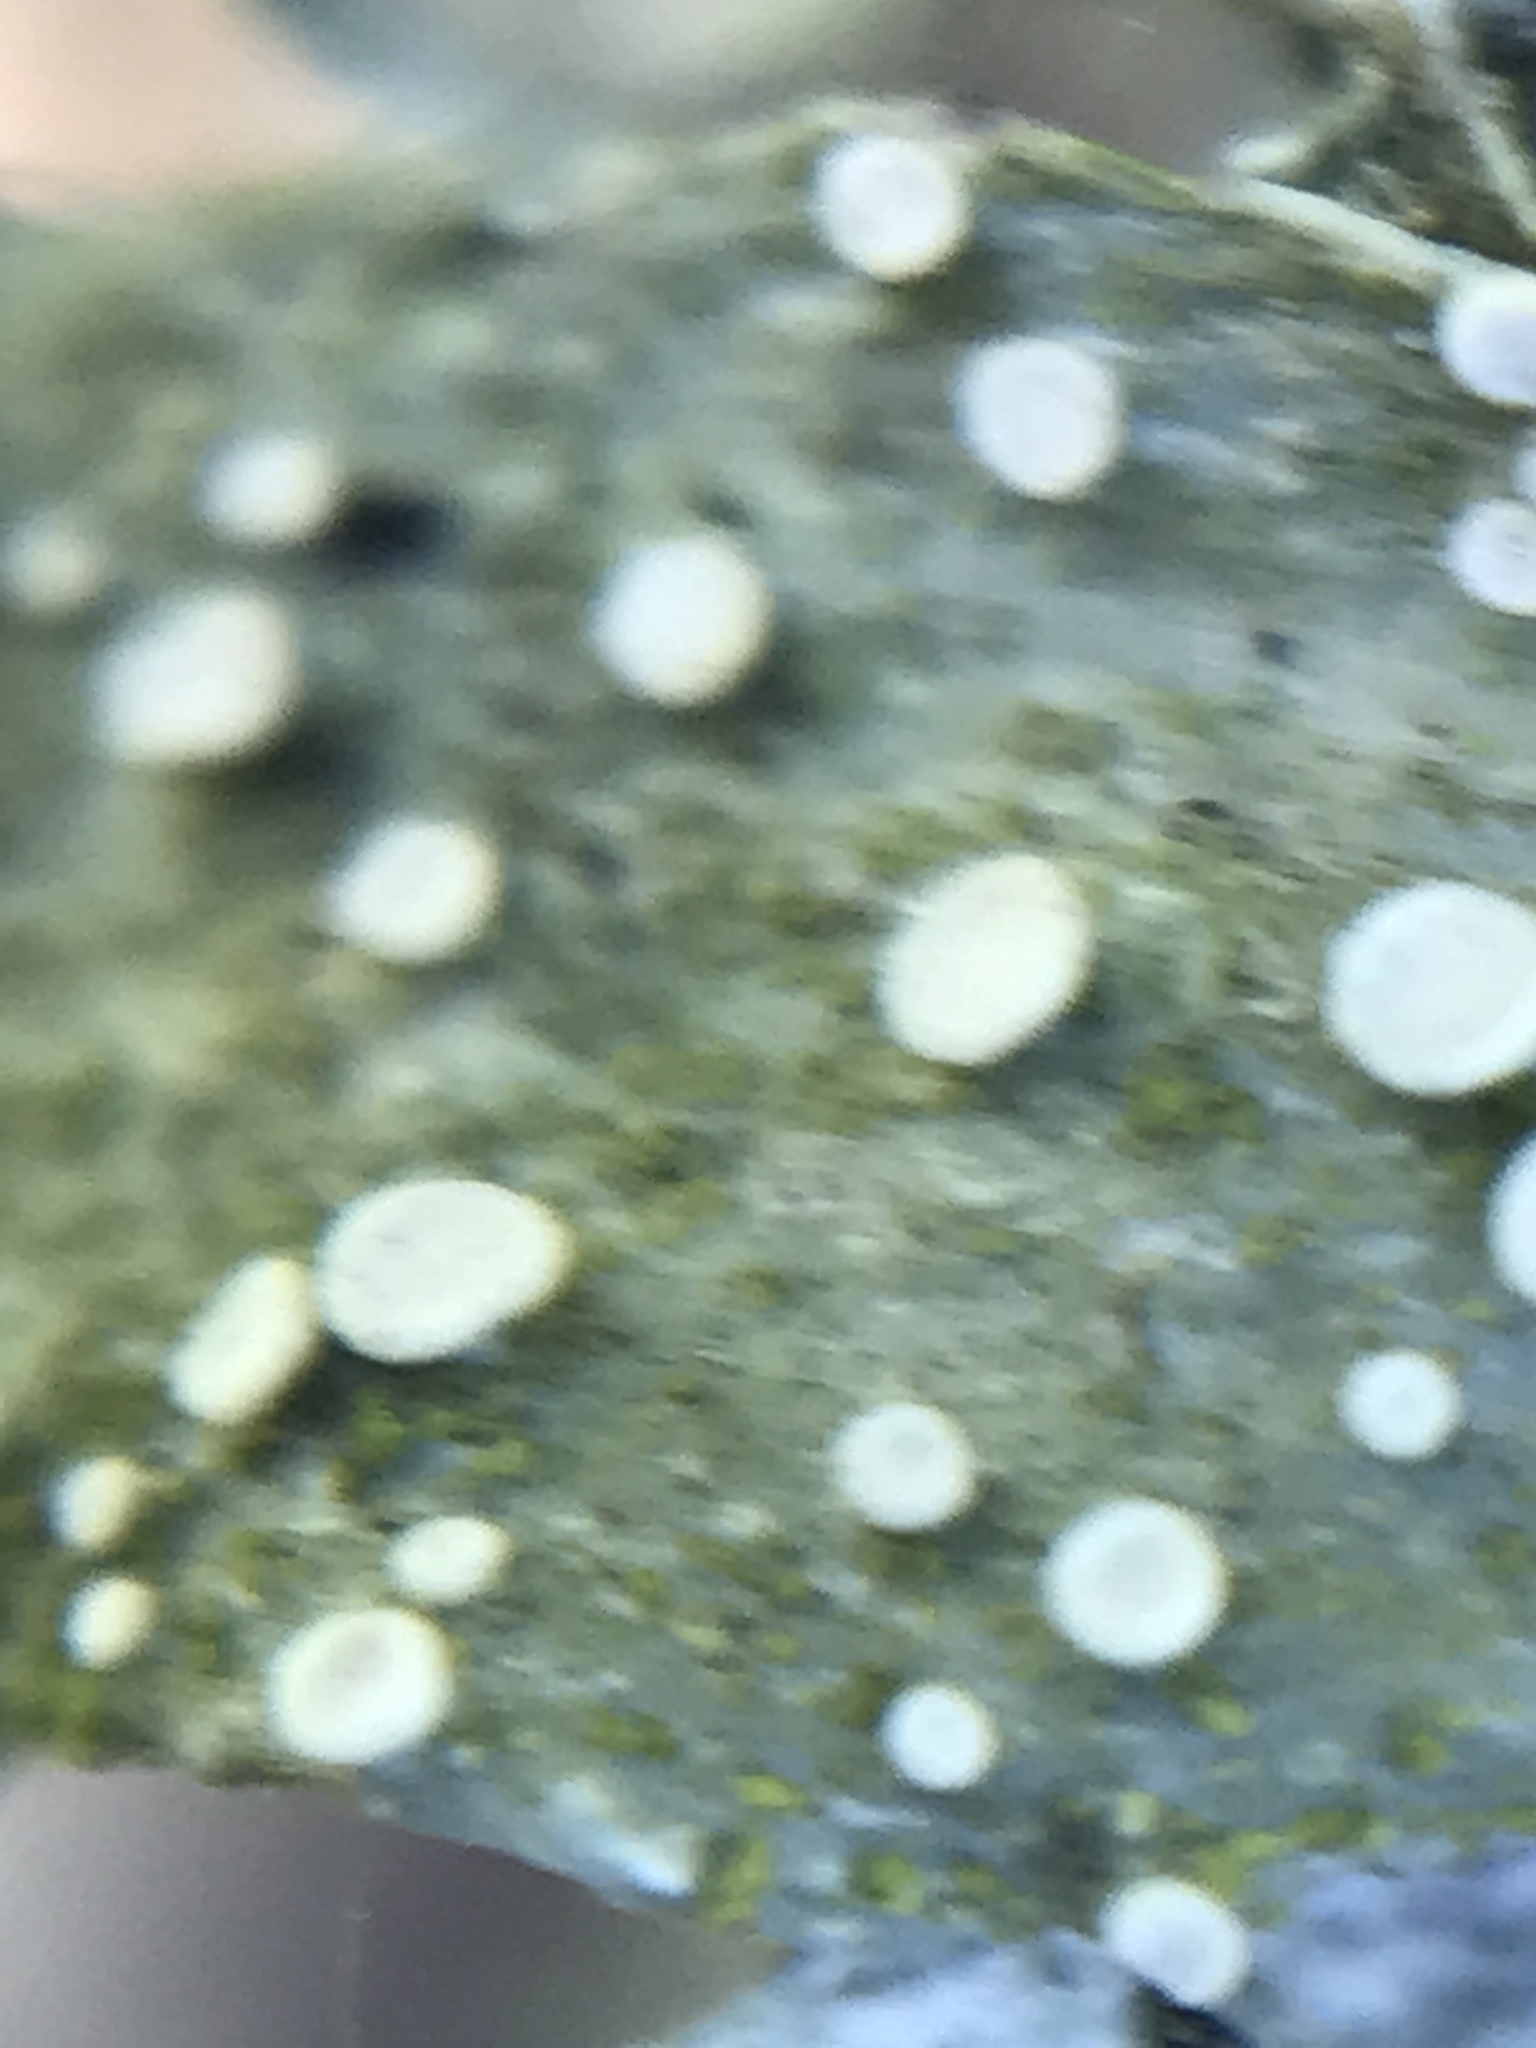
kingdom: Fungi
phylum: Ascomycota
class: Lecanoromycetes
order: Lecanorales
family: Ramalinaceae
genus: Ramalina
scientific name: Ramalina celastri
